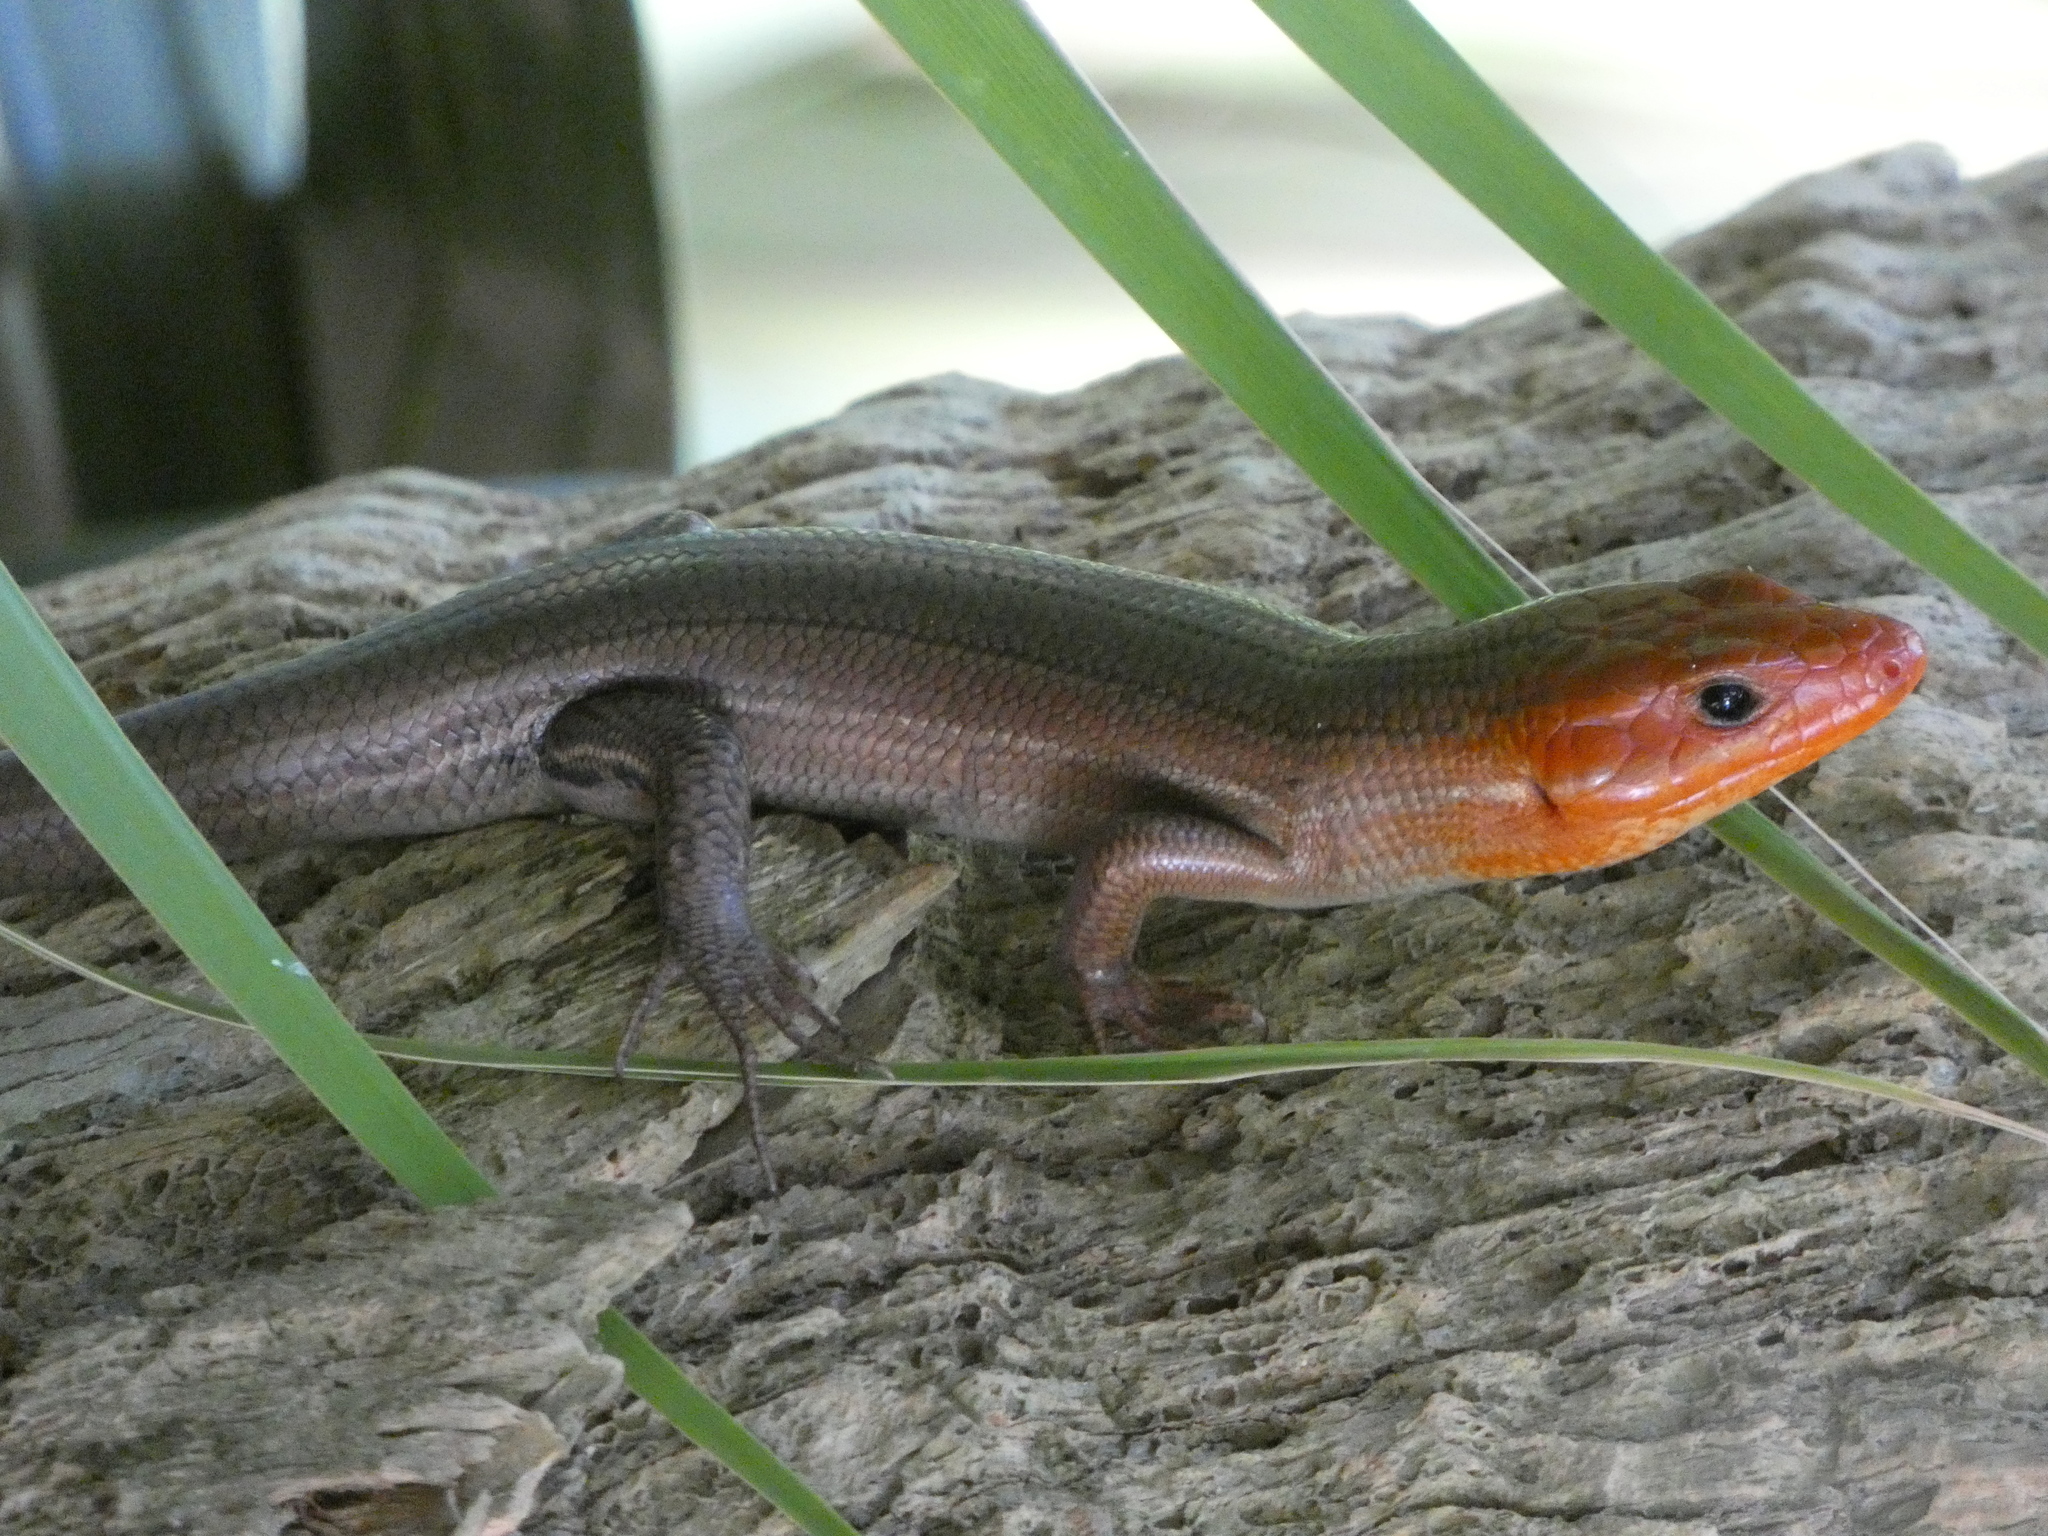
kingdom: Animalia
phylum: Chordata
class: Squamata
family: Scincidae
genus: Plestiodon
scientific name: Plestiodon laticeps
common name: Broadhead skink
